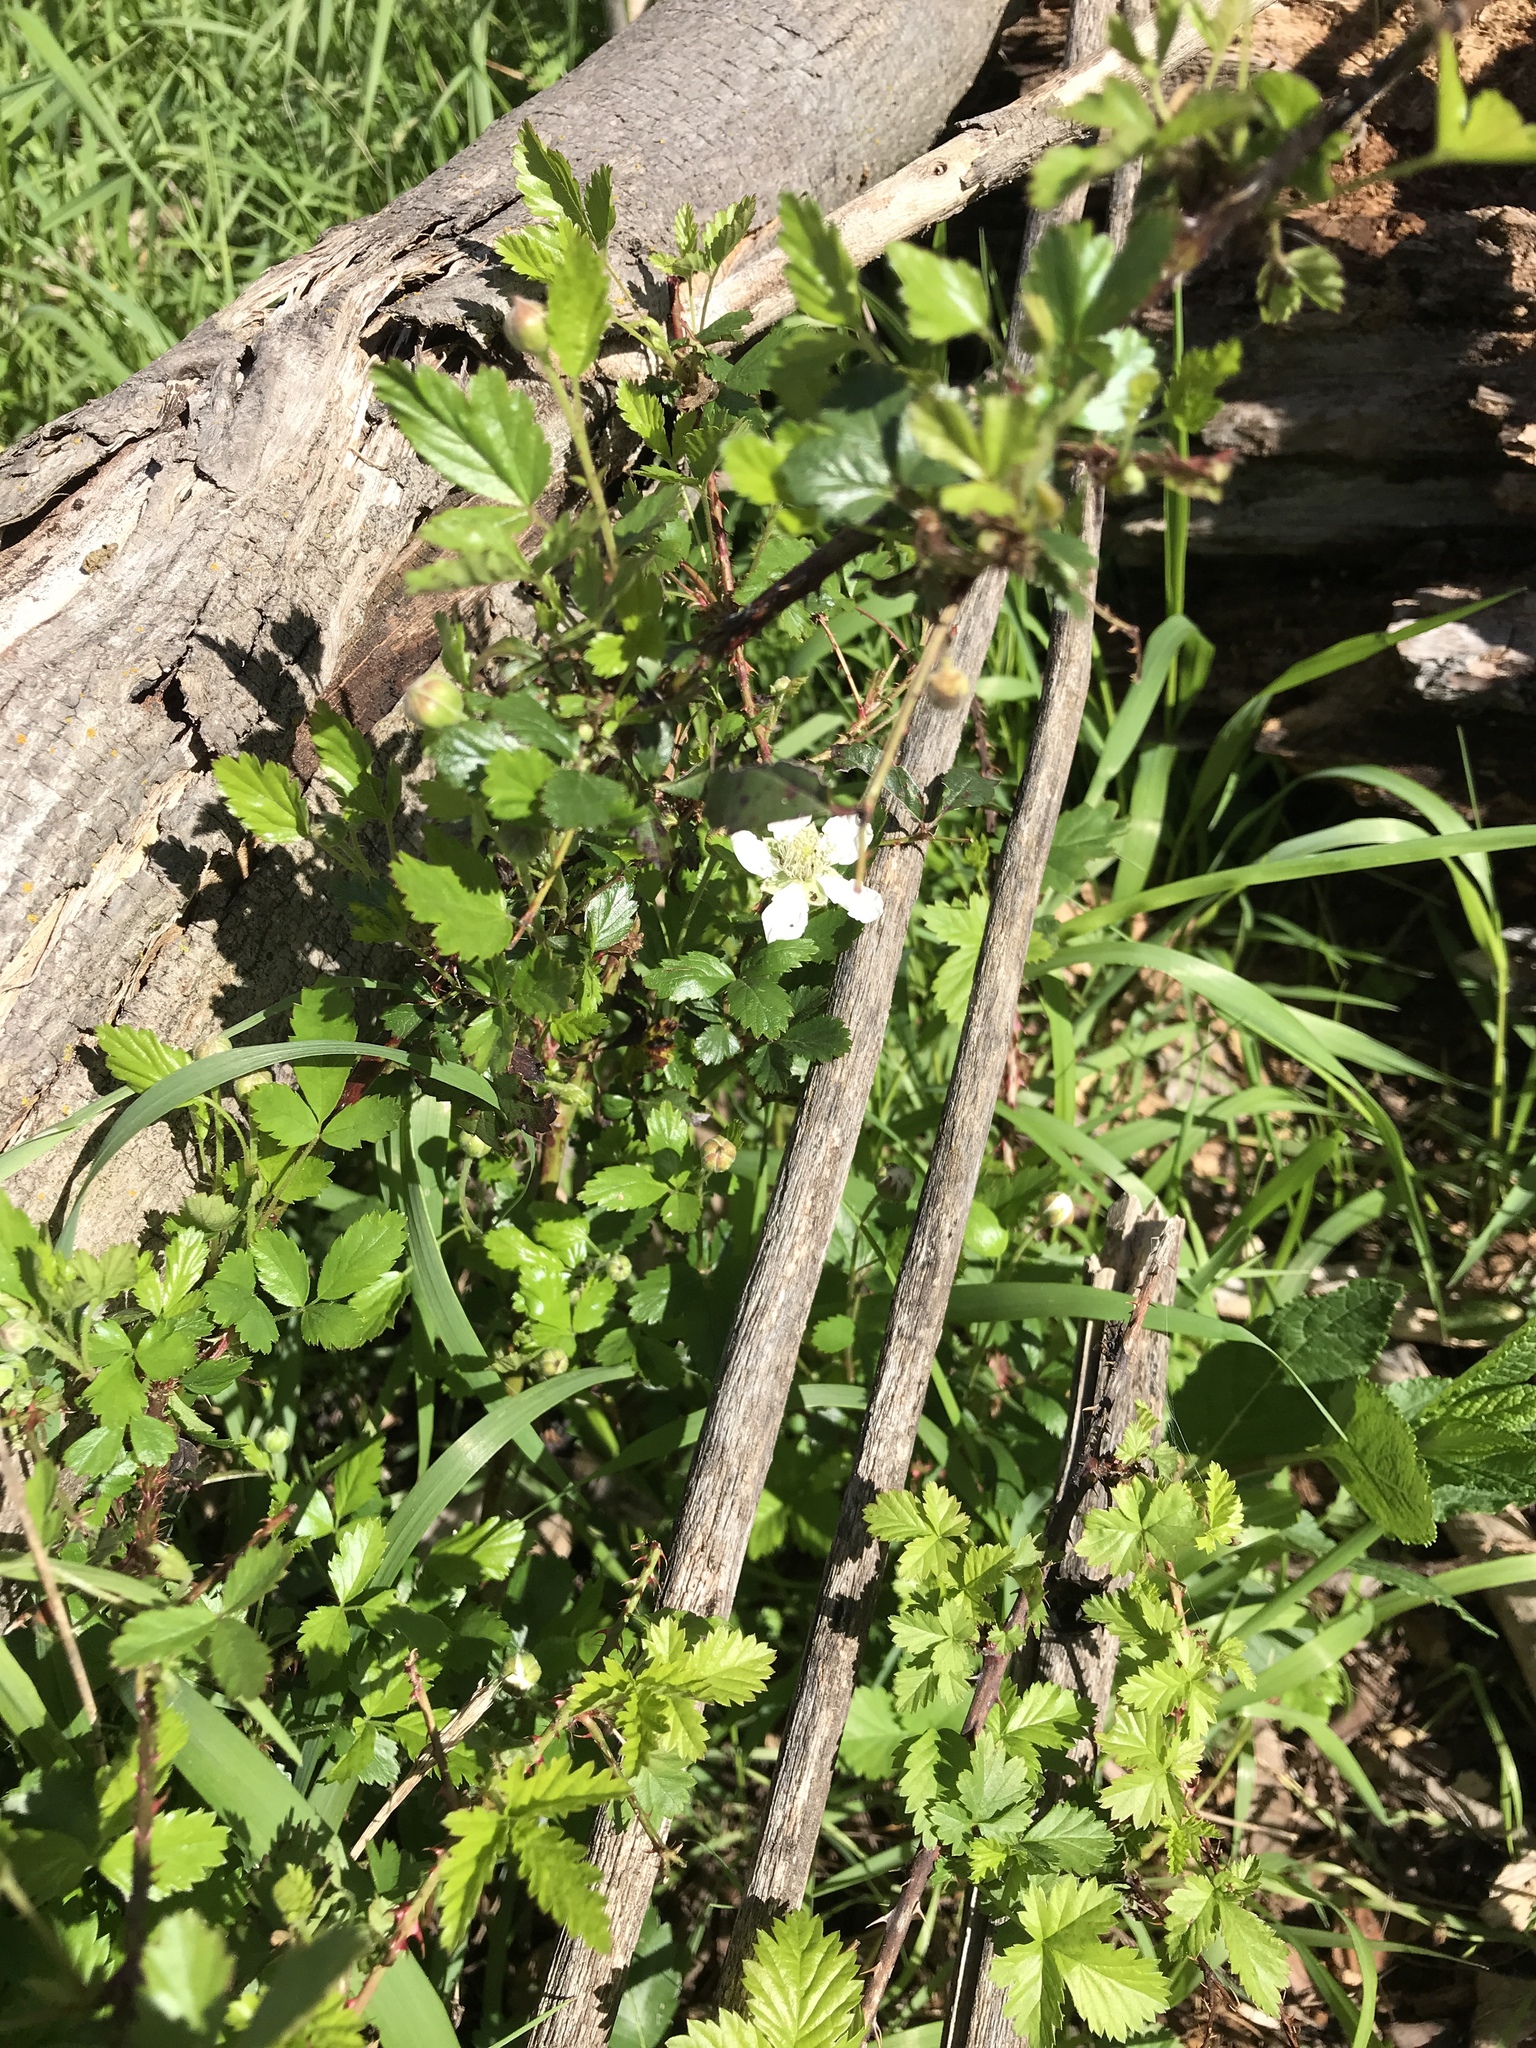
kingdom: Plantae
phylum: Tracheophyta
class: Magnoliopsida
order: Rosales
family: Rosaceae
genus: Rubus
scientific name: Rubus trivialis
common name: Southern dewberry
